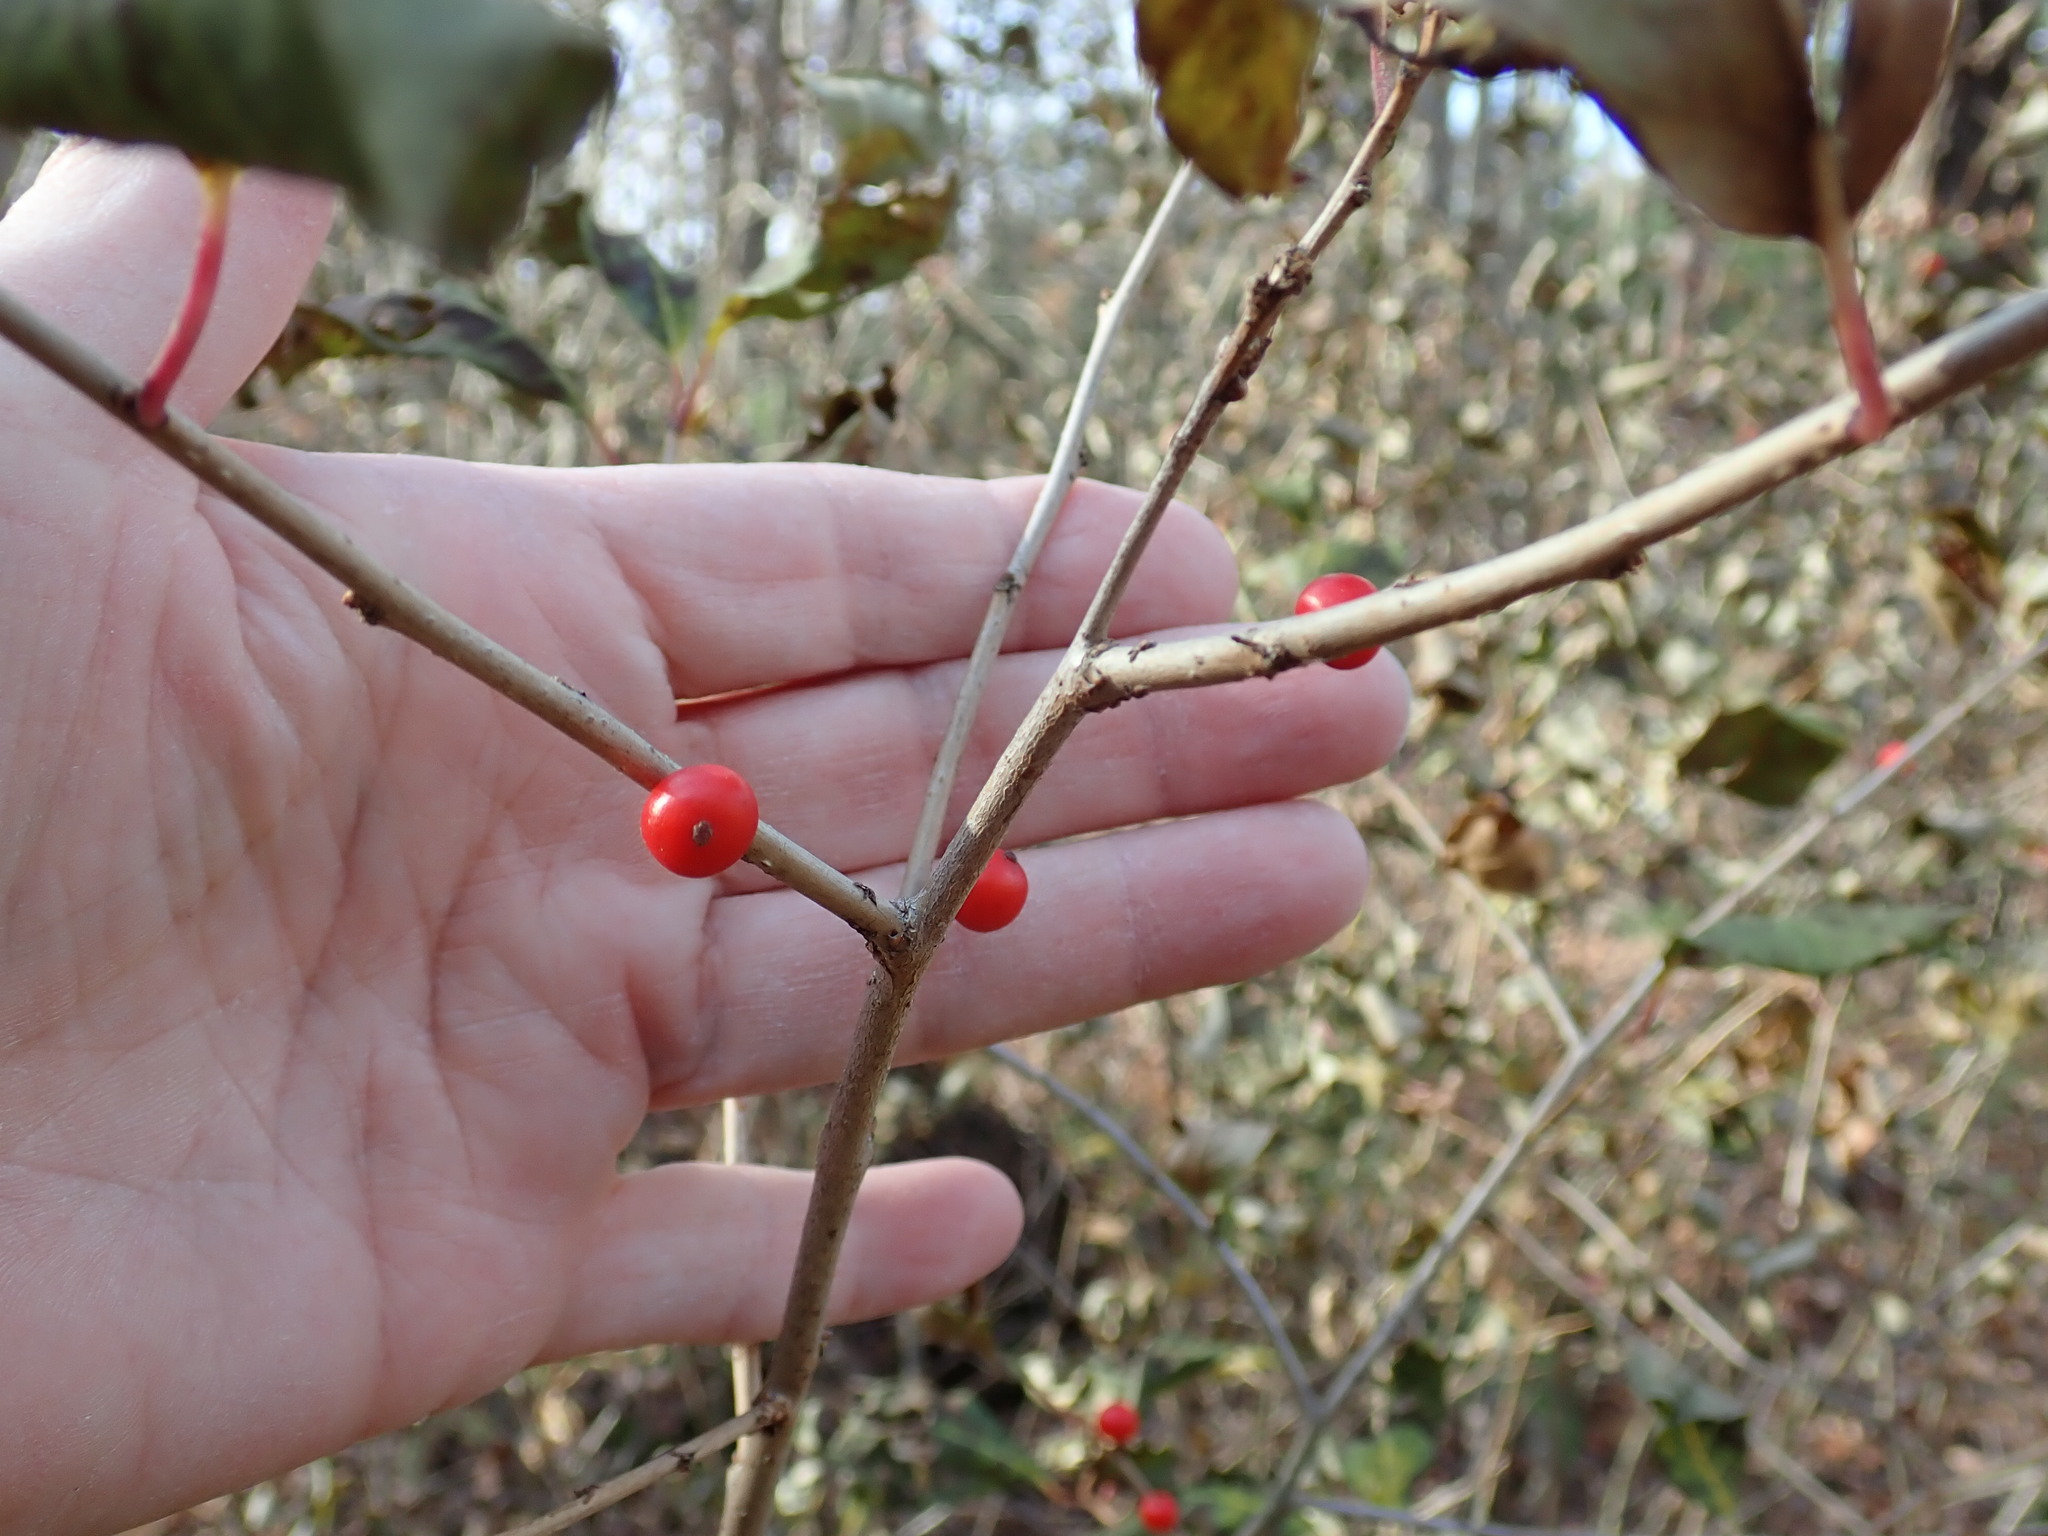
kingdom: Plantae
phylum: Tracheophyta
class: Magnoliopsida
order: Aquifoliales
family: Aquifoliaceae
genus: Ilex
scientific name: Ilex verticillata
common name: Virginia winterberry
